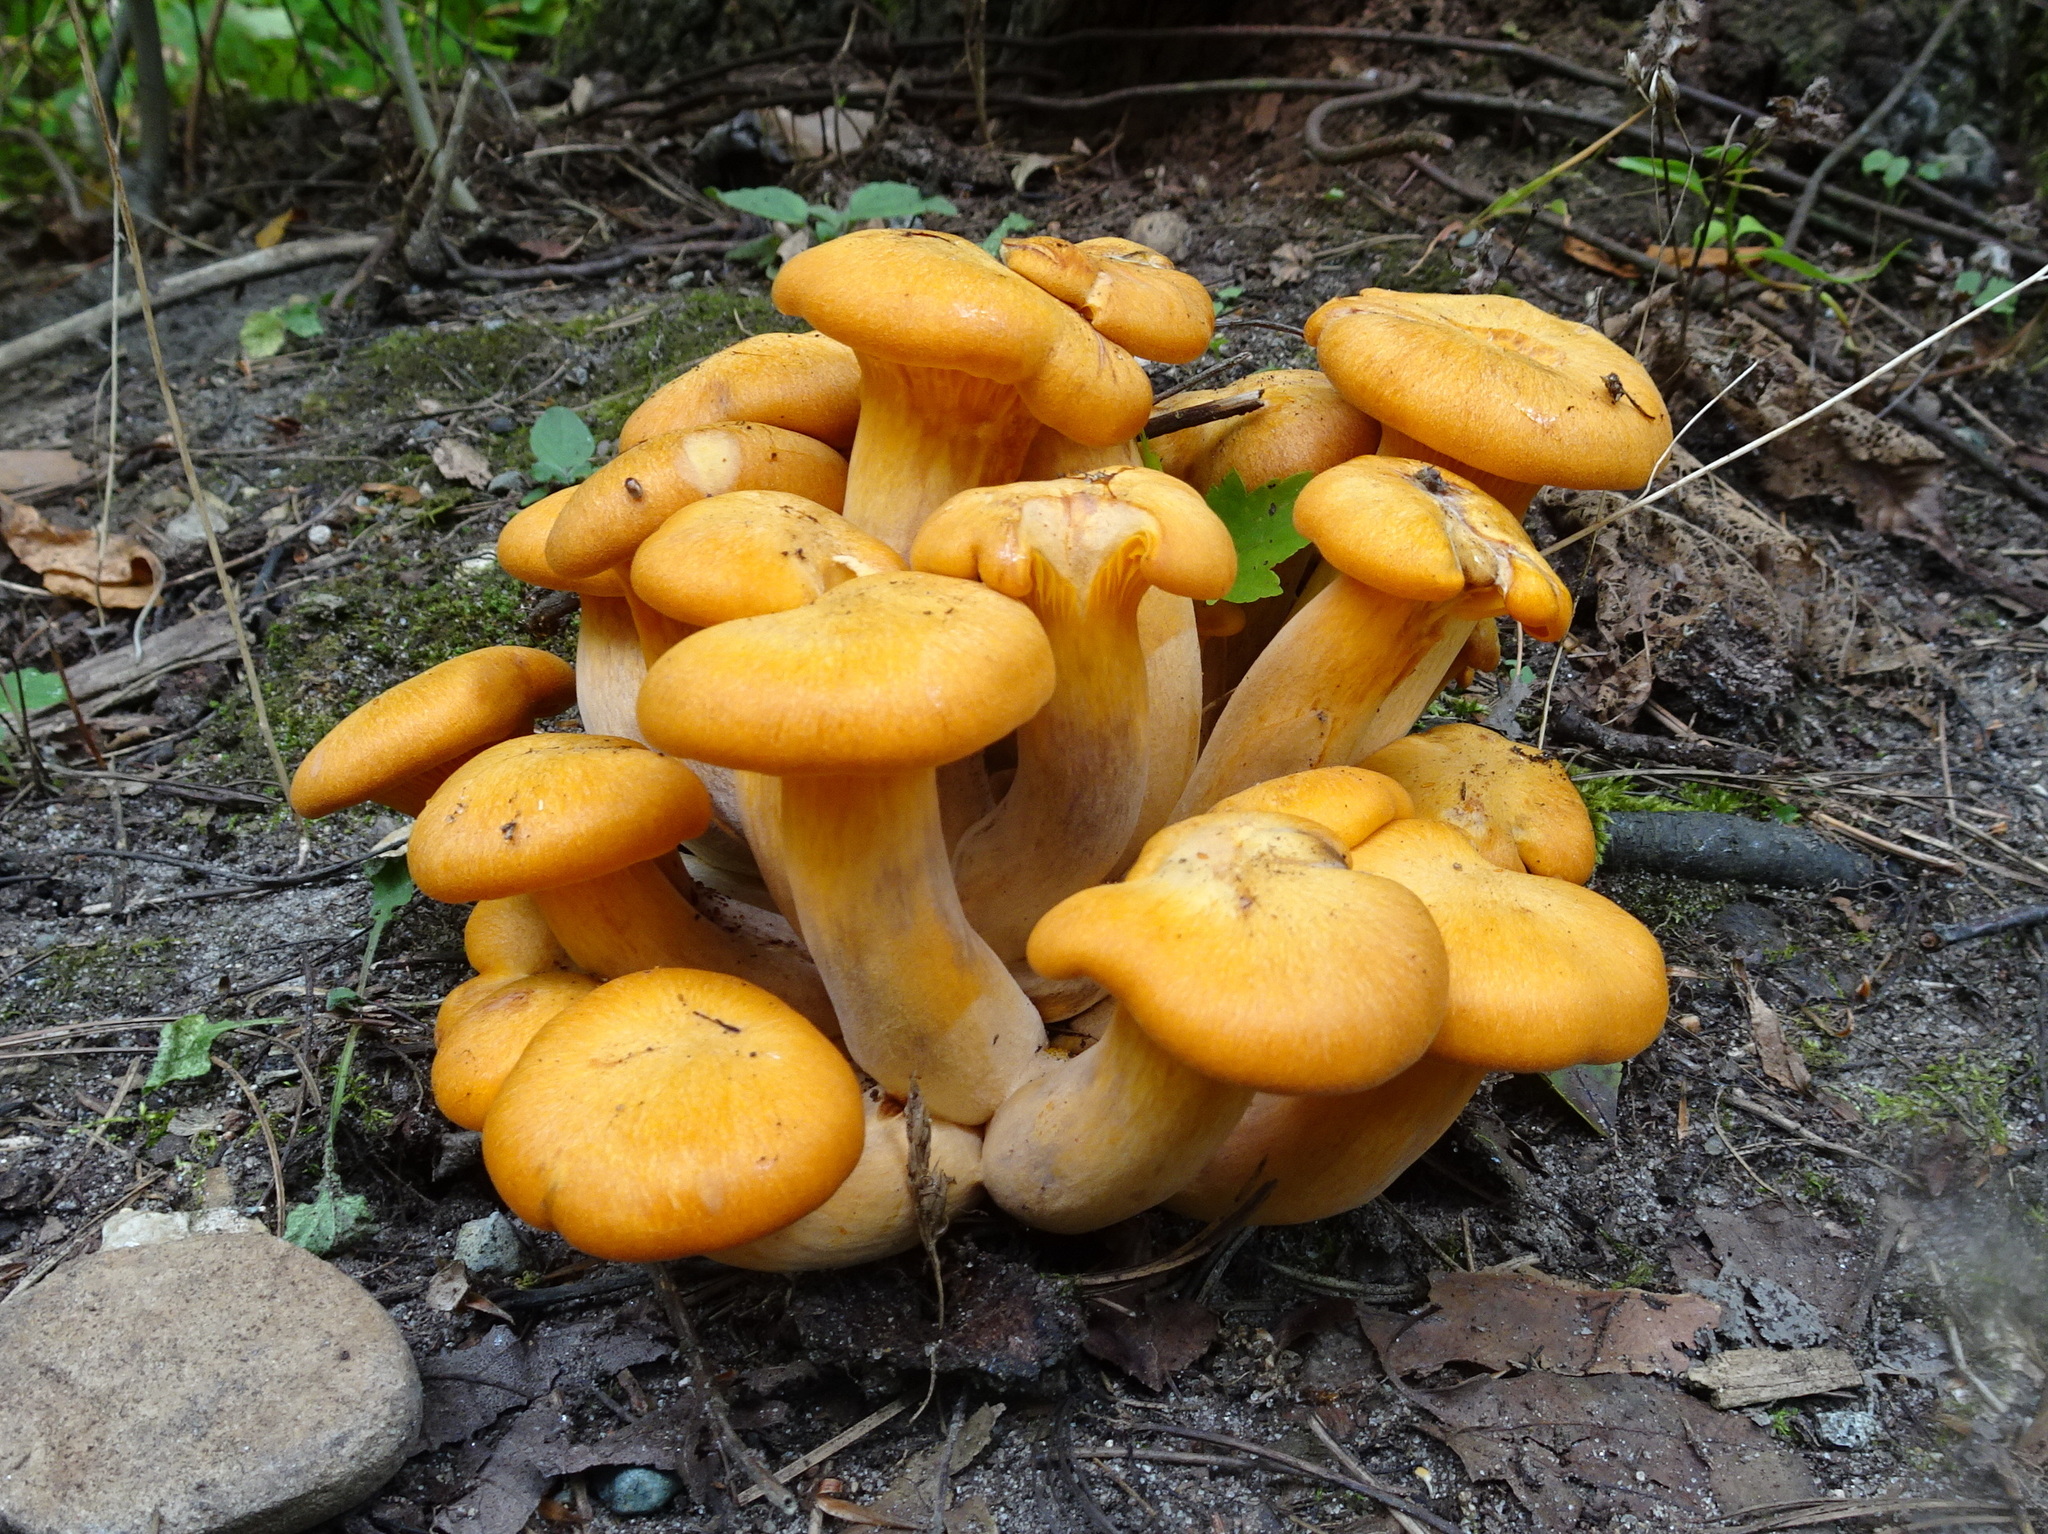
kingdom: Fungi
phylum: Basidiomycota
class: Agaricomycetes
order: Agaricales
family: Omphalotaceae
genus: Omphalotus
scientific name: Omphalotus illudens
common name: Jack o lantern
